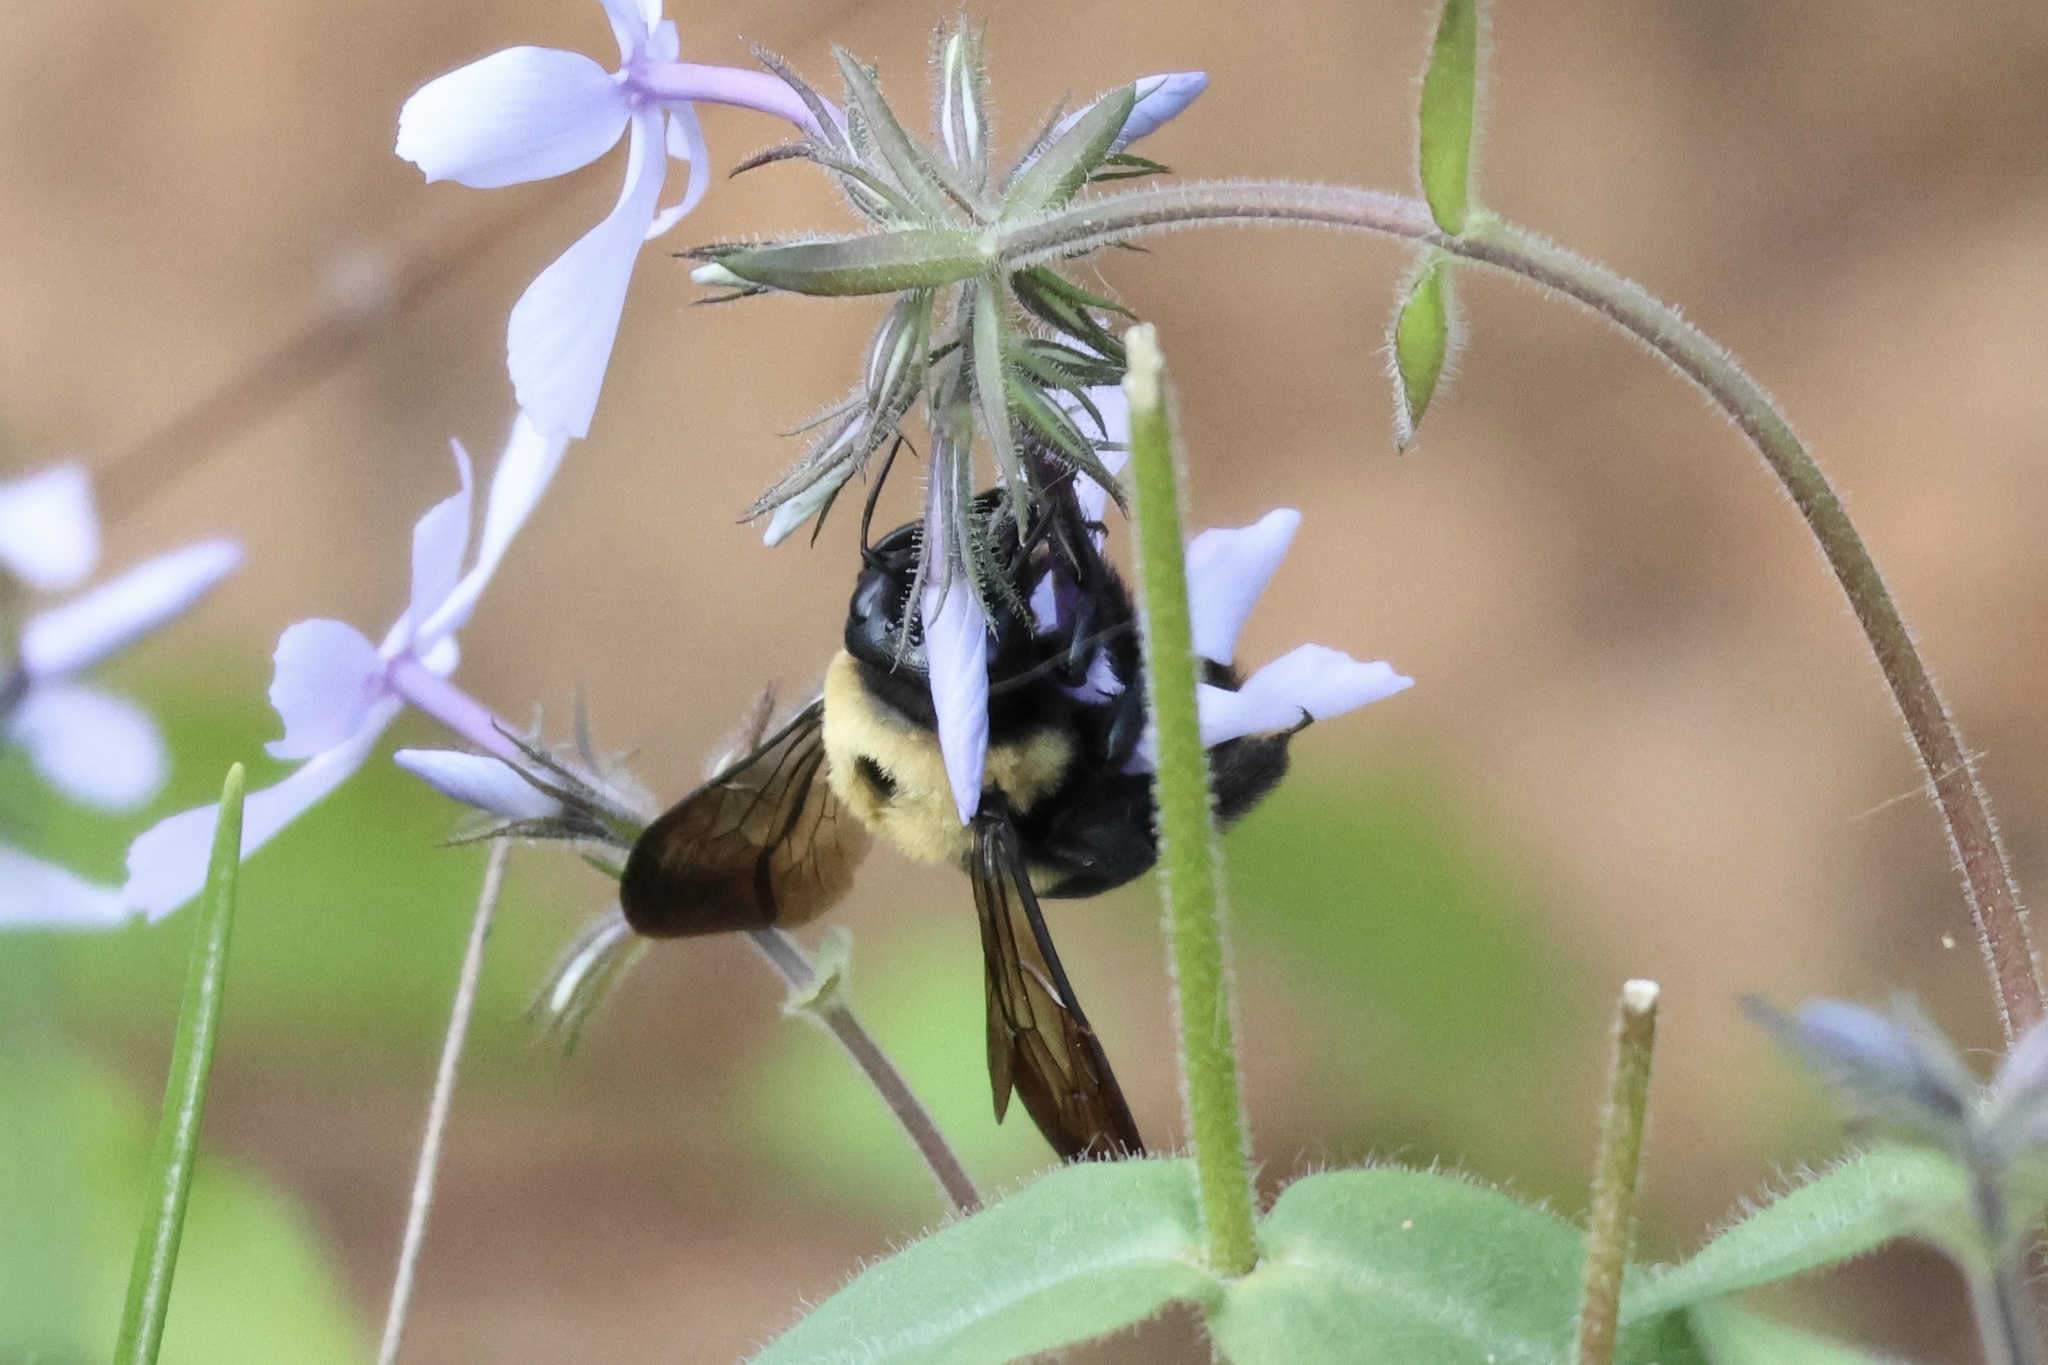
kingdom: Animalia
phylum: Arthropoda
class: Insecta
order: Hymenoptera
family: Apidae
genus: Xylocopa
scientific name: Xylocopa virginica
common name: Carpenter bee
